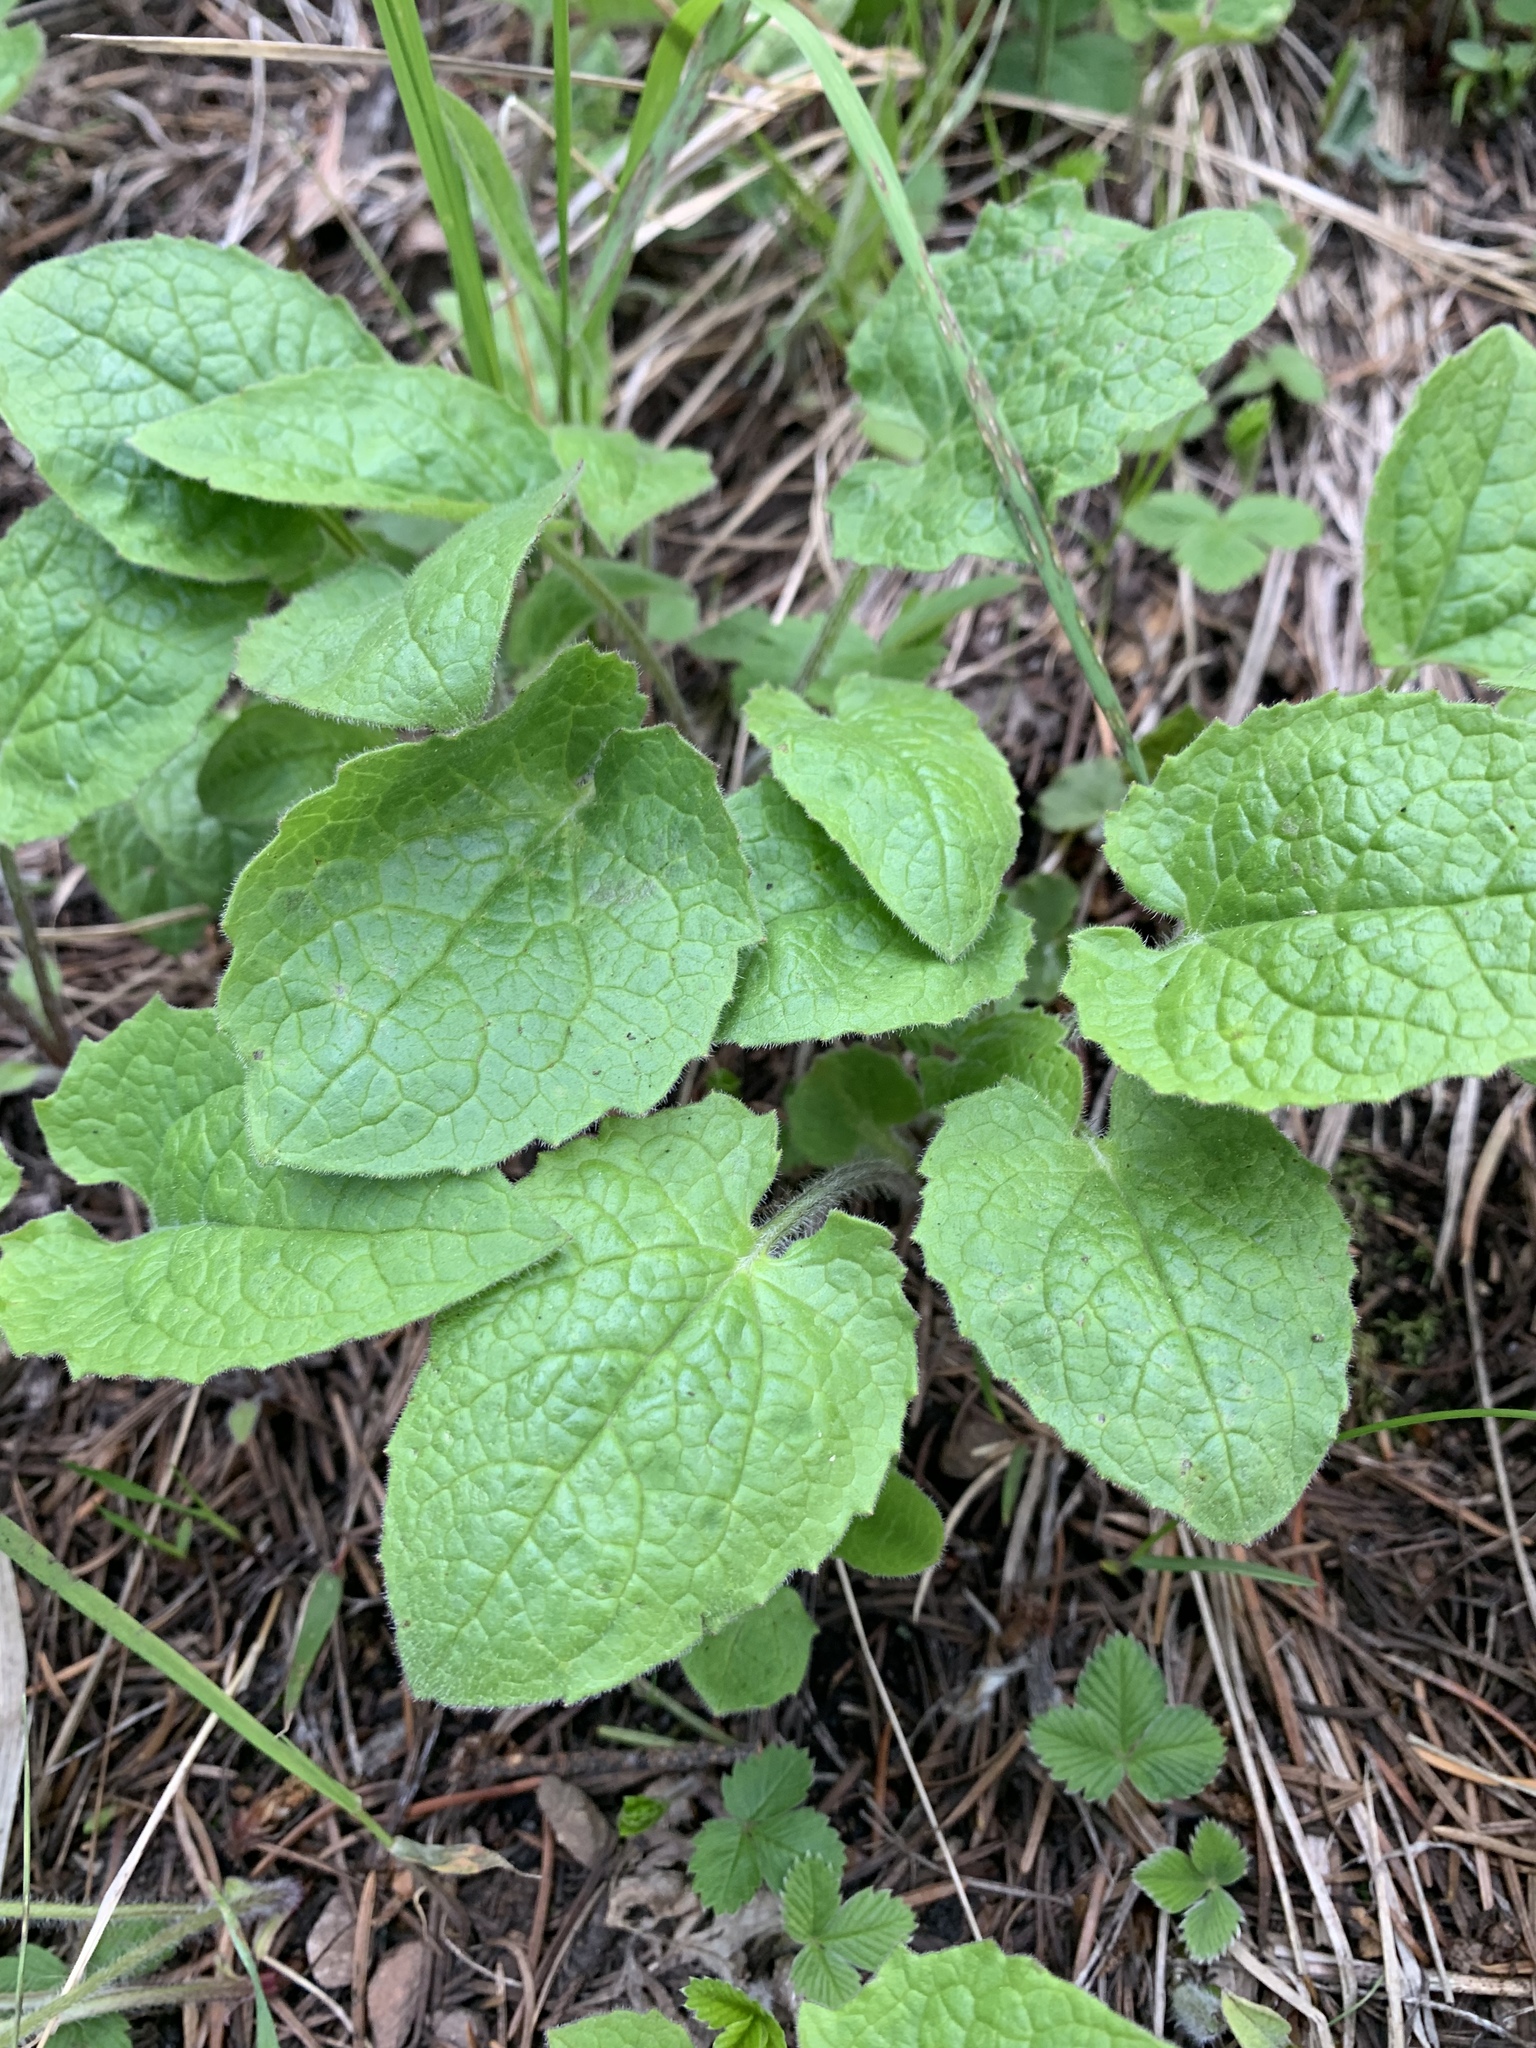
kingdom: Plantae
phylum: Tracheophyta
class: Magnoliopsida
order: Asterales
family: Asteraceae
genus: Arnica
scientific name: Arnica cordifolia
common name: Heart-leaf arnica
